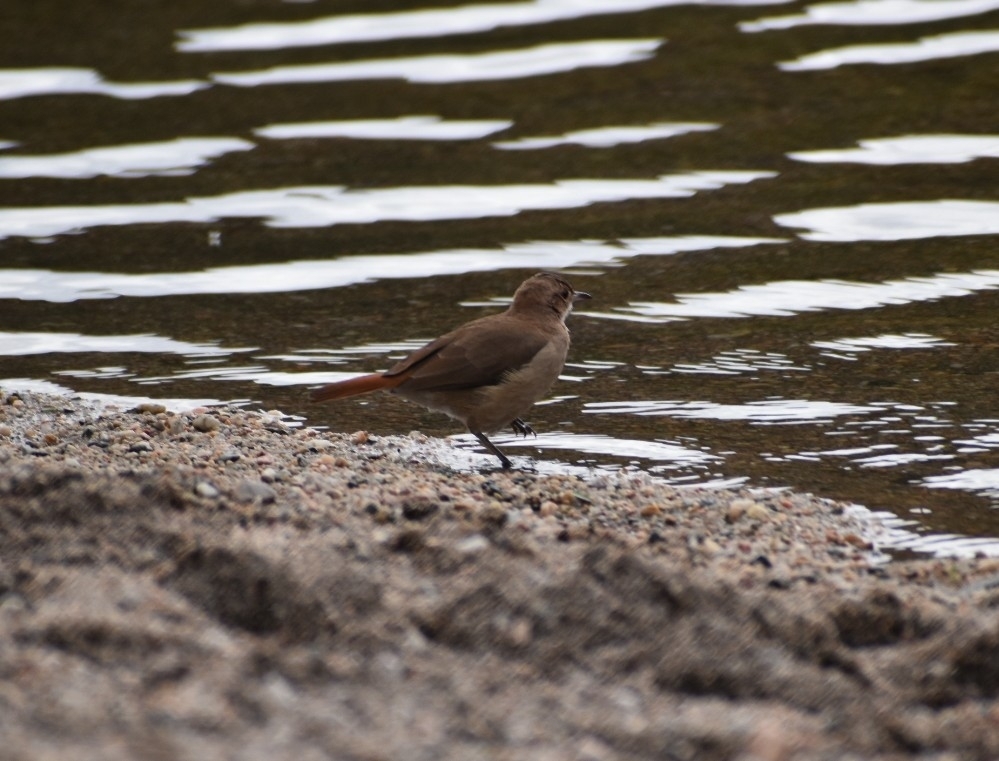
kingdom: Animalia
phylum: Chordata
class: Aves
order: Passeriformes
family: Furnariidae
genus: Furnarius
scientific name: Furnarius rufus
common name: Rufous hornero
